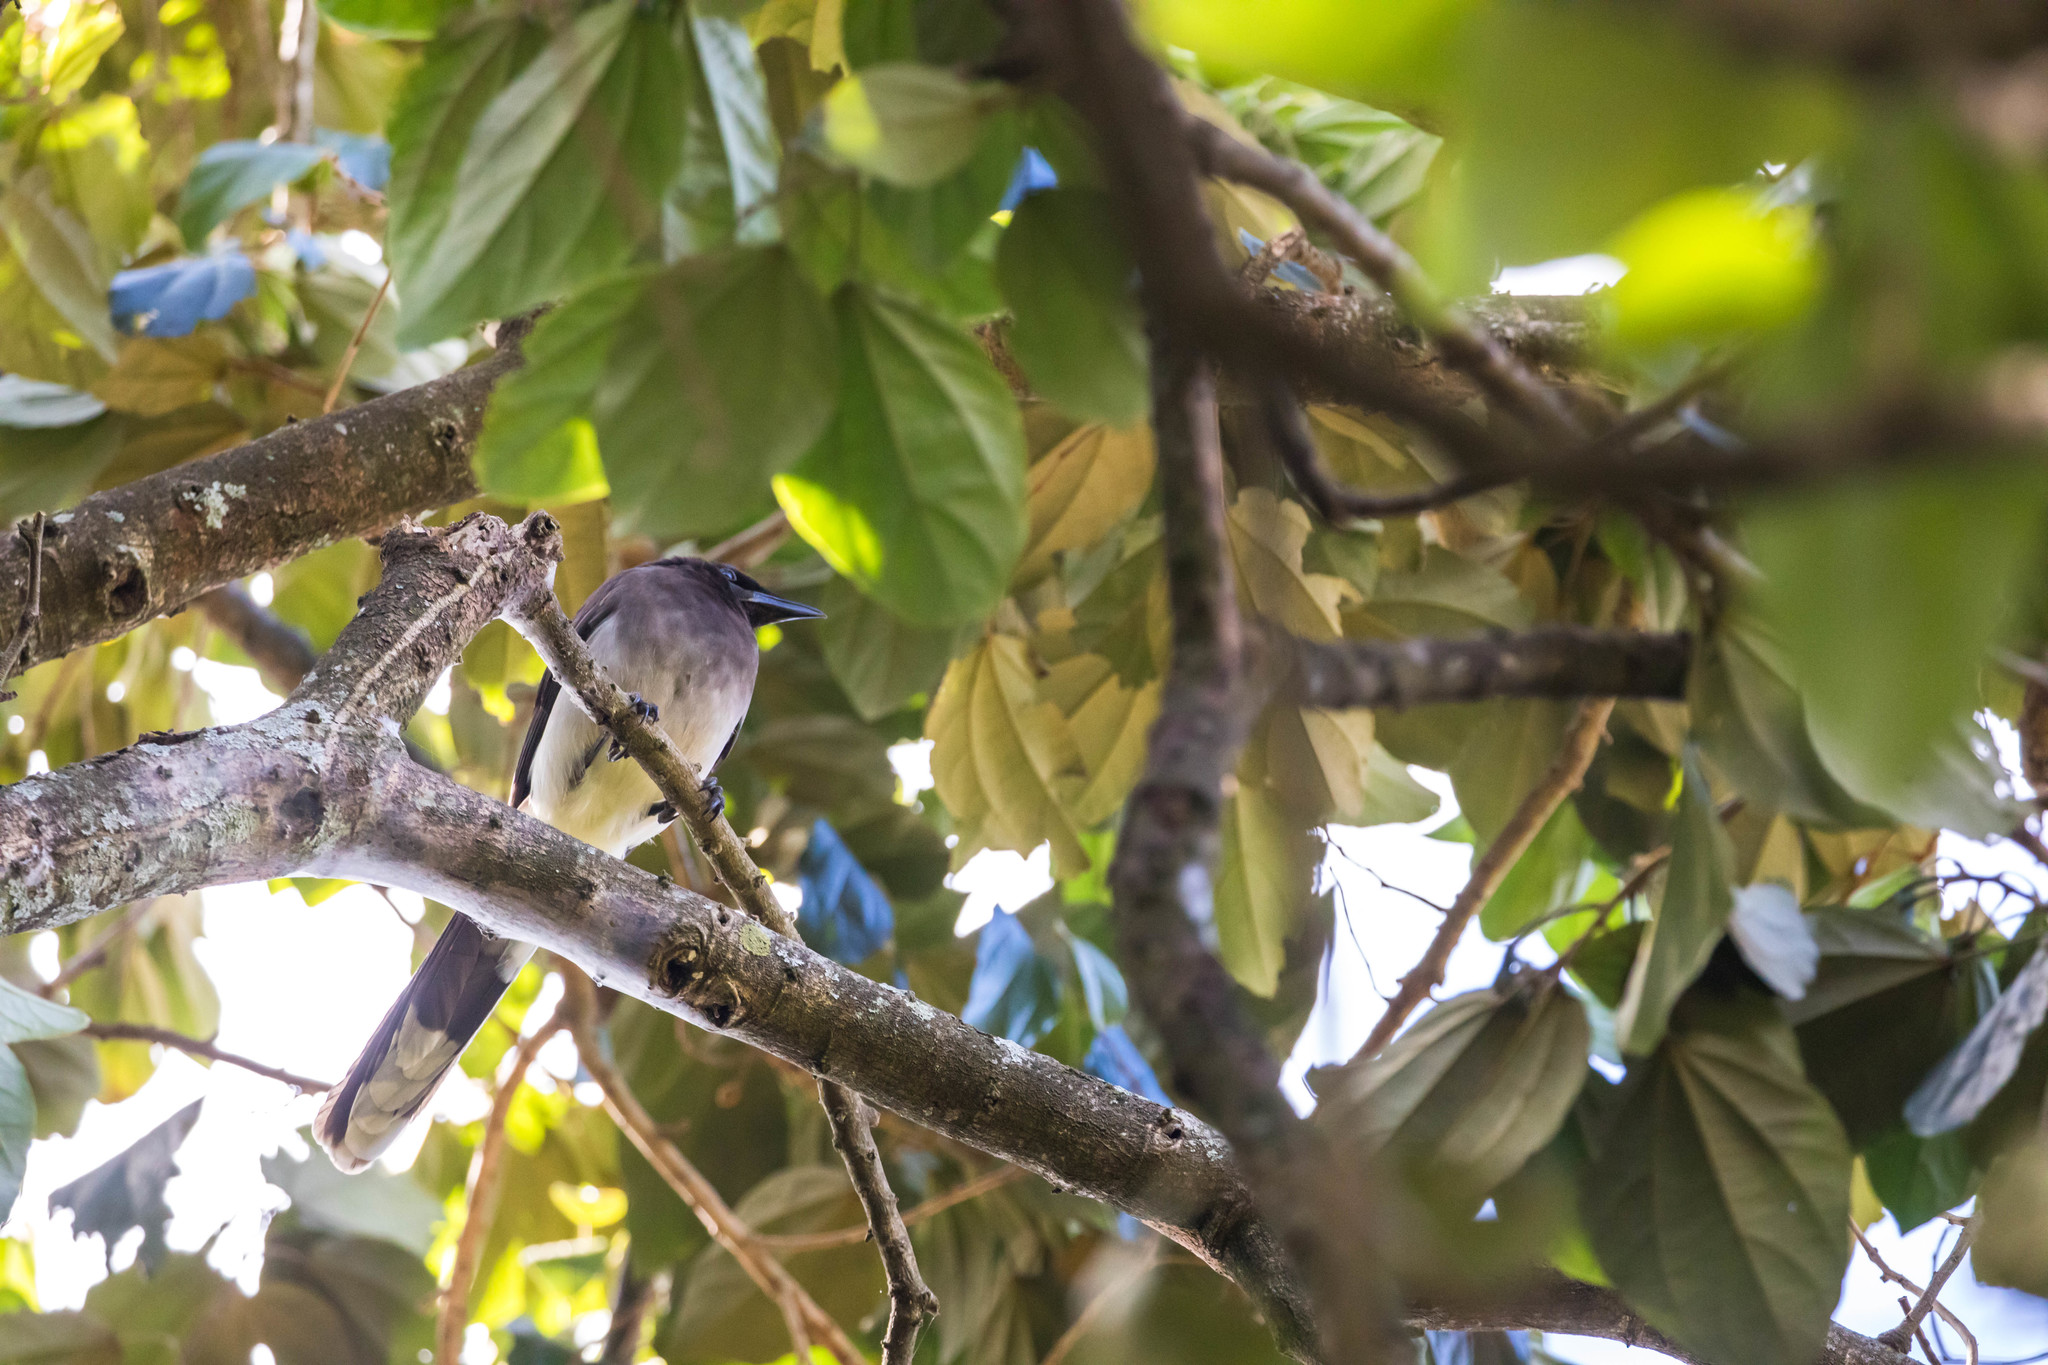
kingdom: Animalia
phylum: Chordata
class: Aves
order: Passeriformes
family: Corvidae
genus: Psilorhinus
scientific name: Psilorhinus morio
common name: Brown jay
